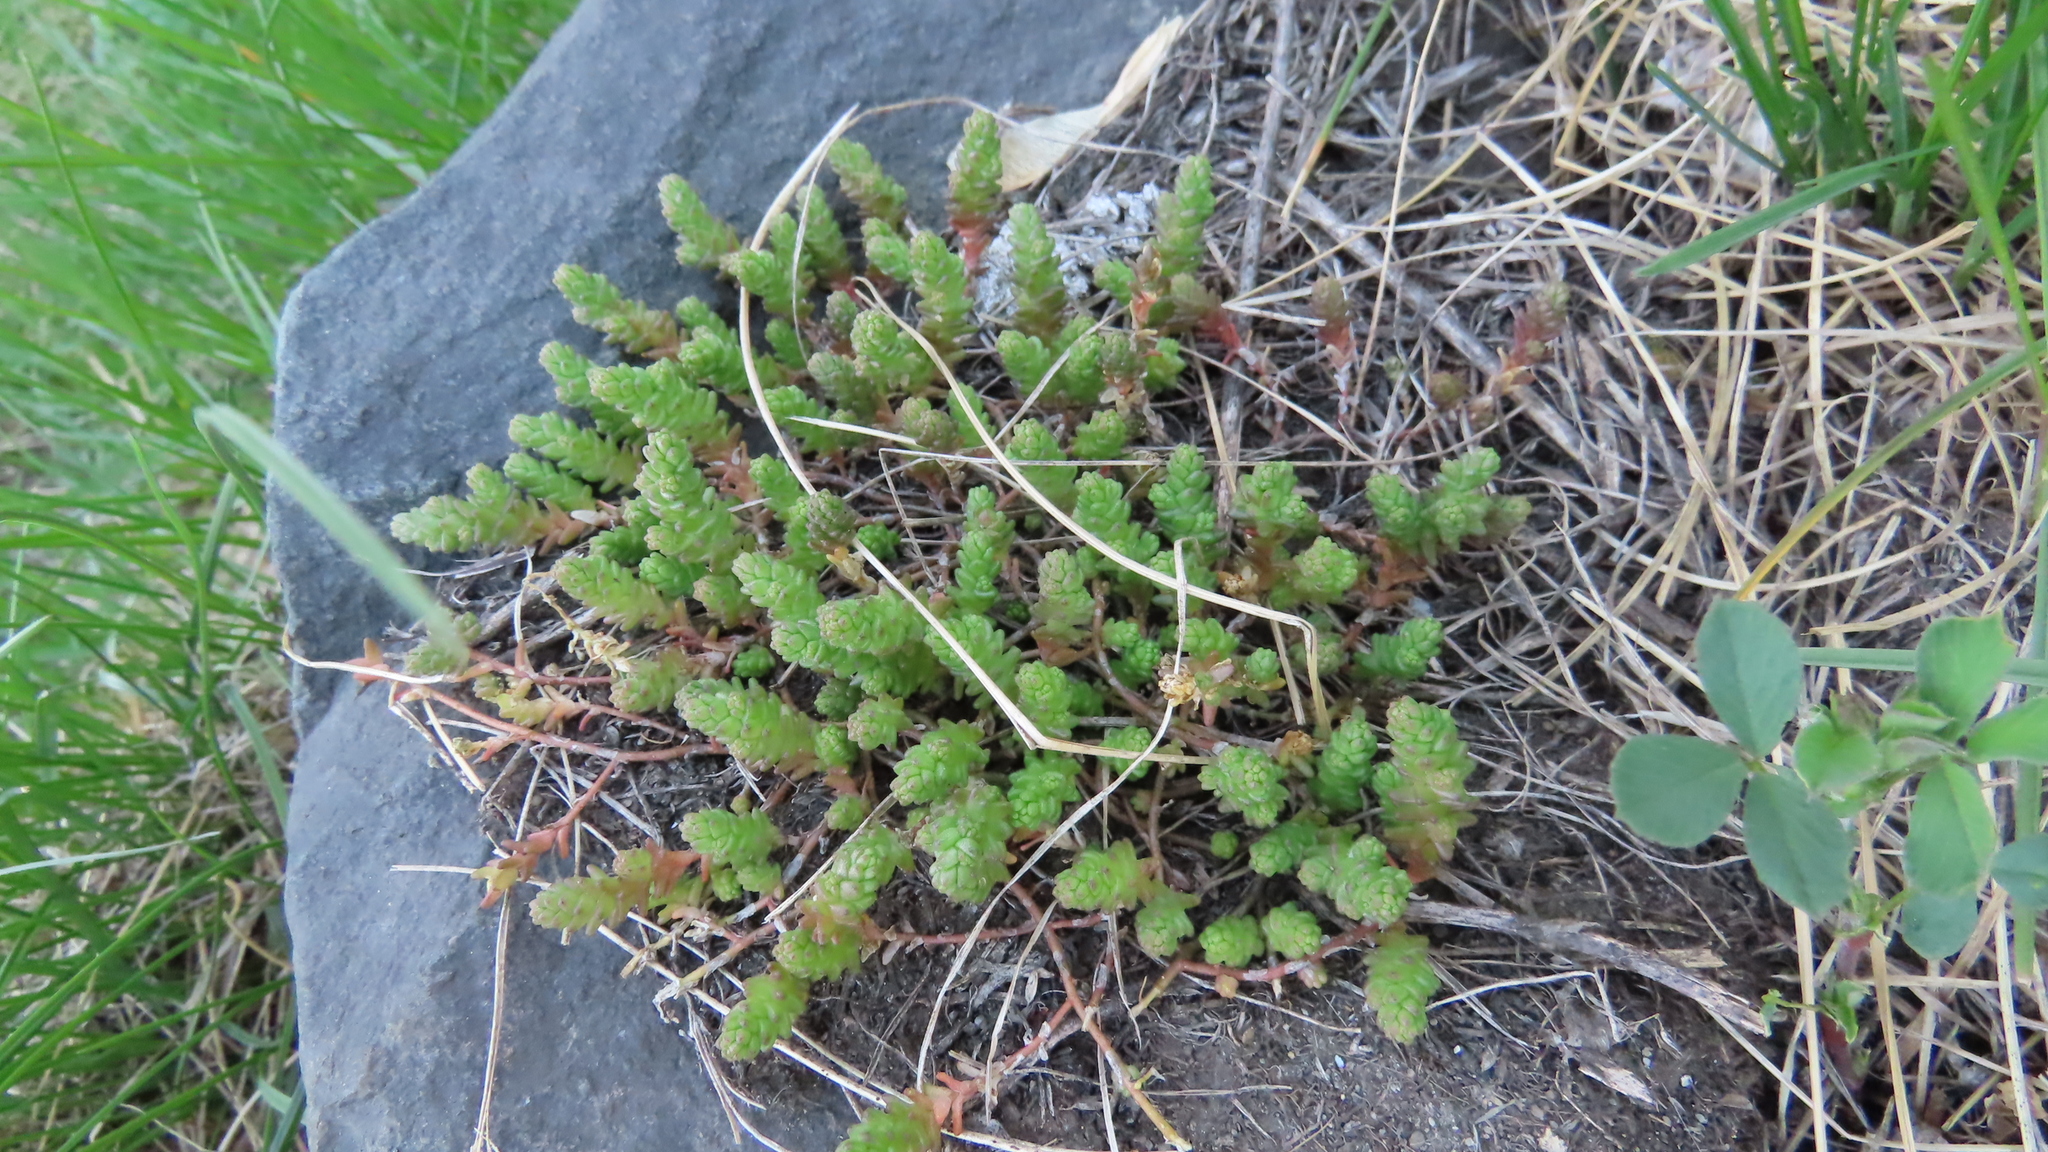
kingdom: Plantae
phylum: Tracheophyta
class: Magnoliopsida
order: Saxifragales
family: Crassulaceae
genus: Sedum
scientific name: Sedum acre
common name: Biting stonecrop
